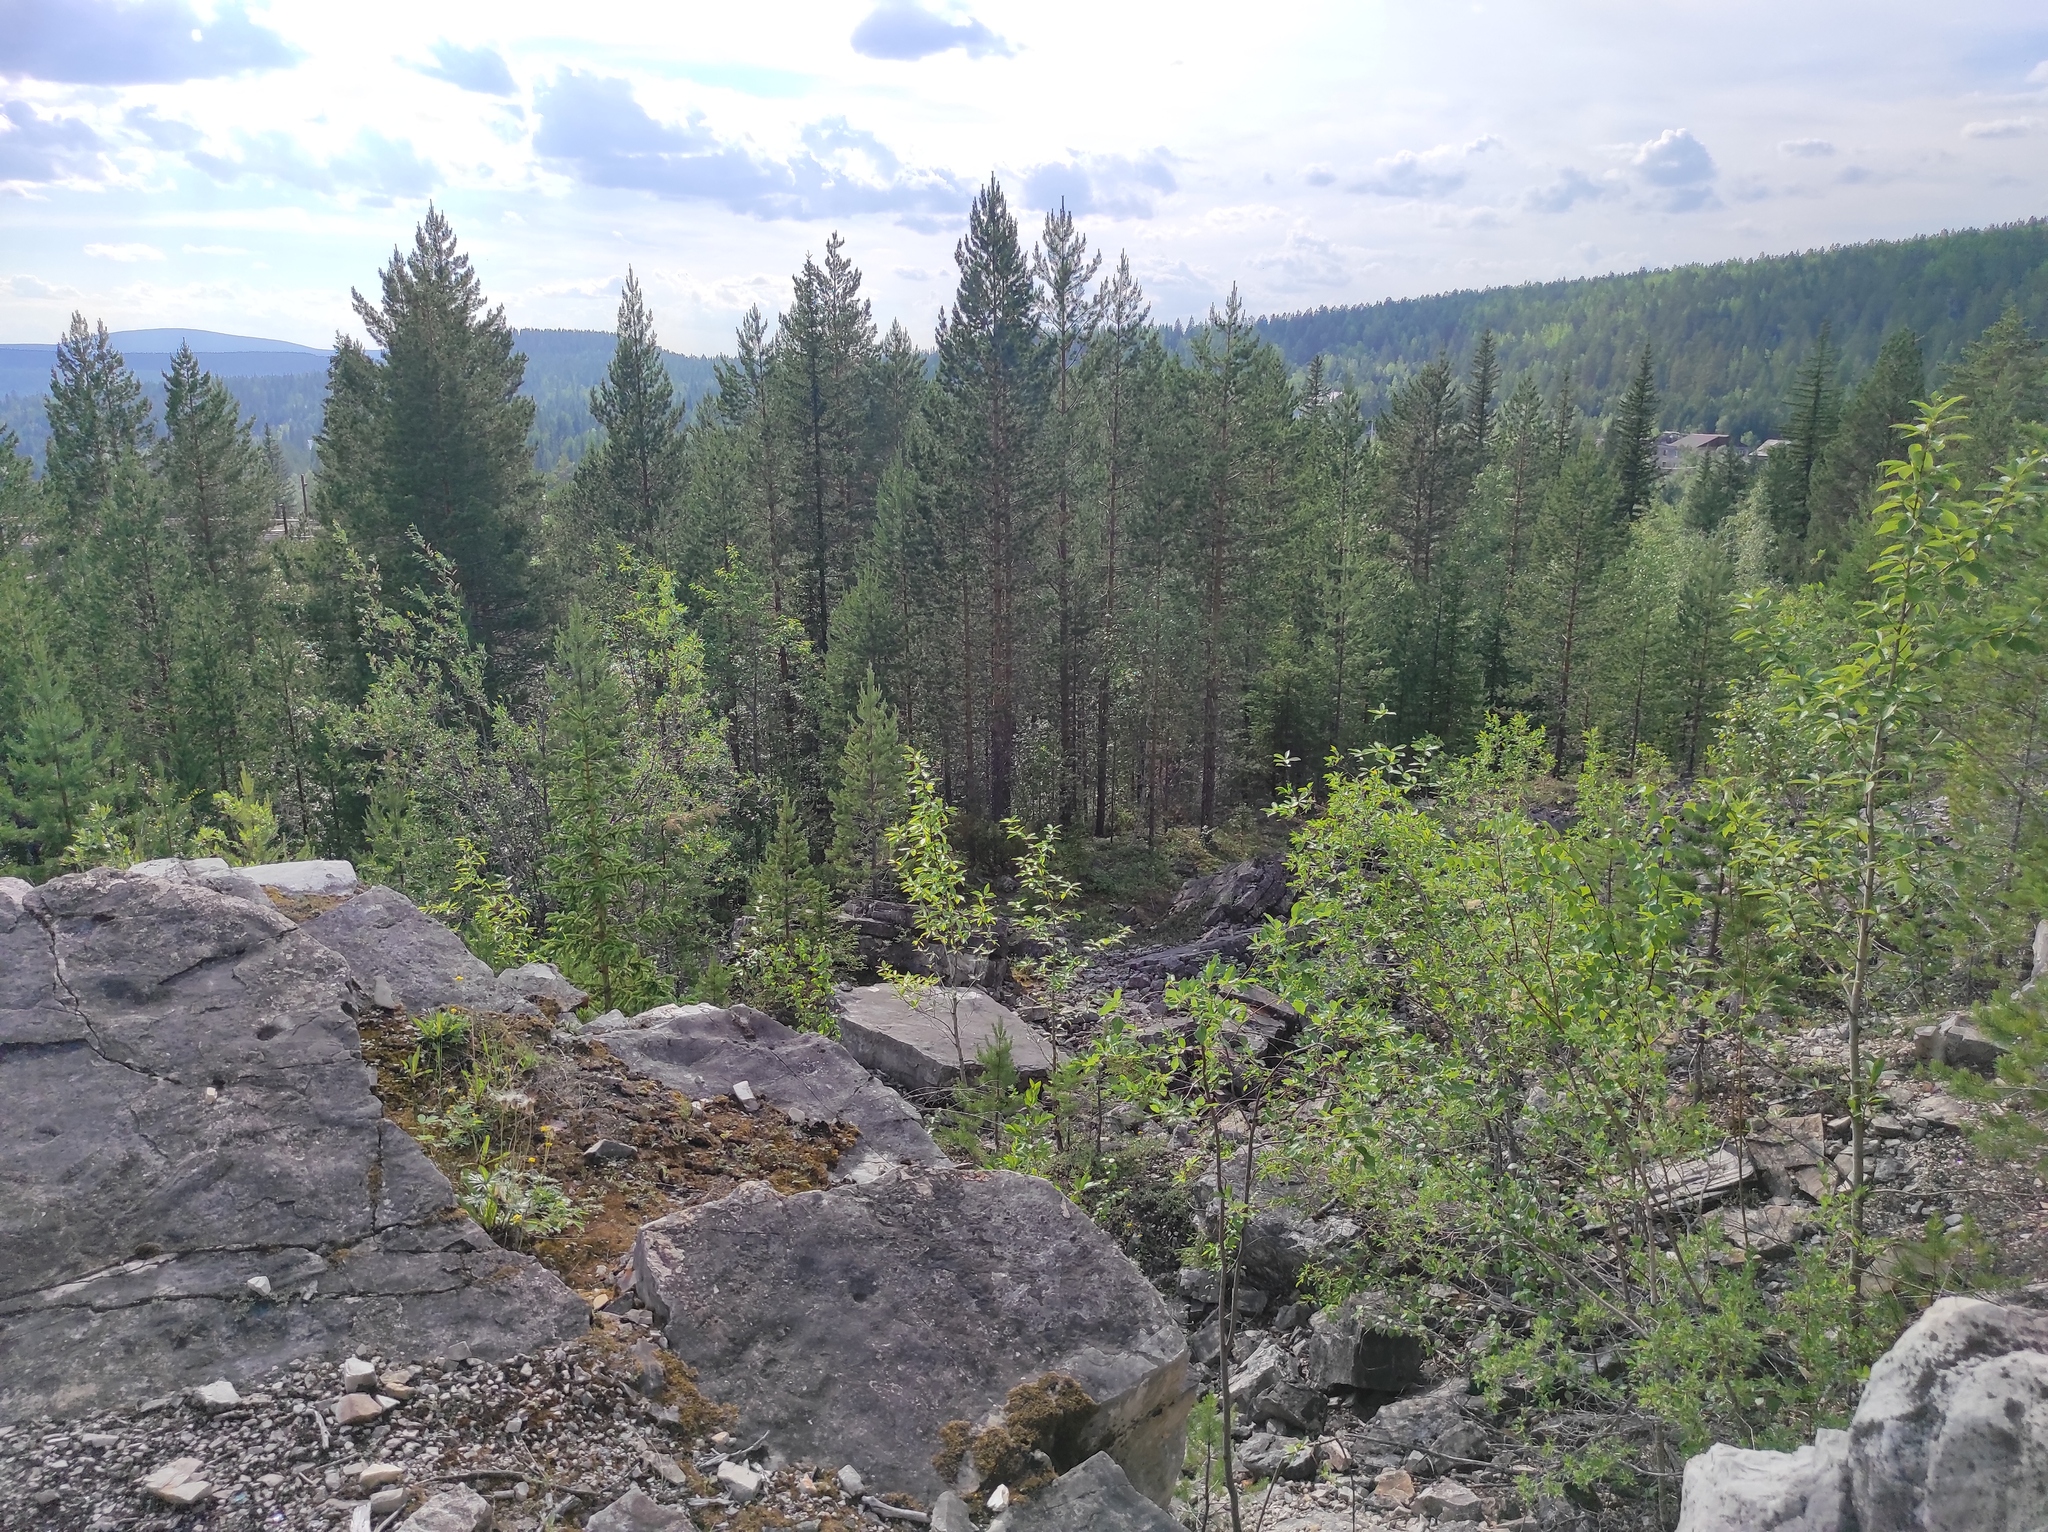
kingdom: Plantae
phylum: Tracheophyta
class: Magnoliopsida
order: Lamiales
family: Orobanchaceae
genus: Castilleja
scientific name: Castilleja rubra
